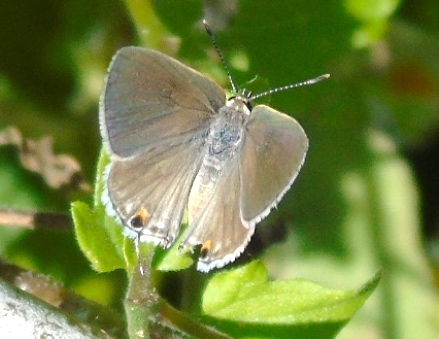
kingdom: Animalia
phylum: Arthropoda
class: Insecta
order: Lepidoptera
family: Lycaenidae
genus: Thecla
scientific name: Thecla rufofusca
